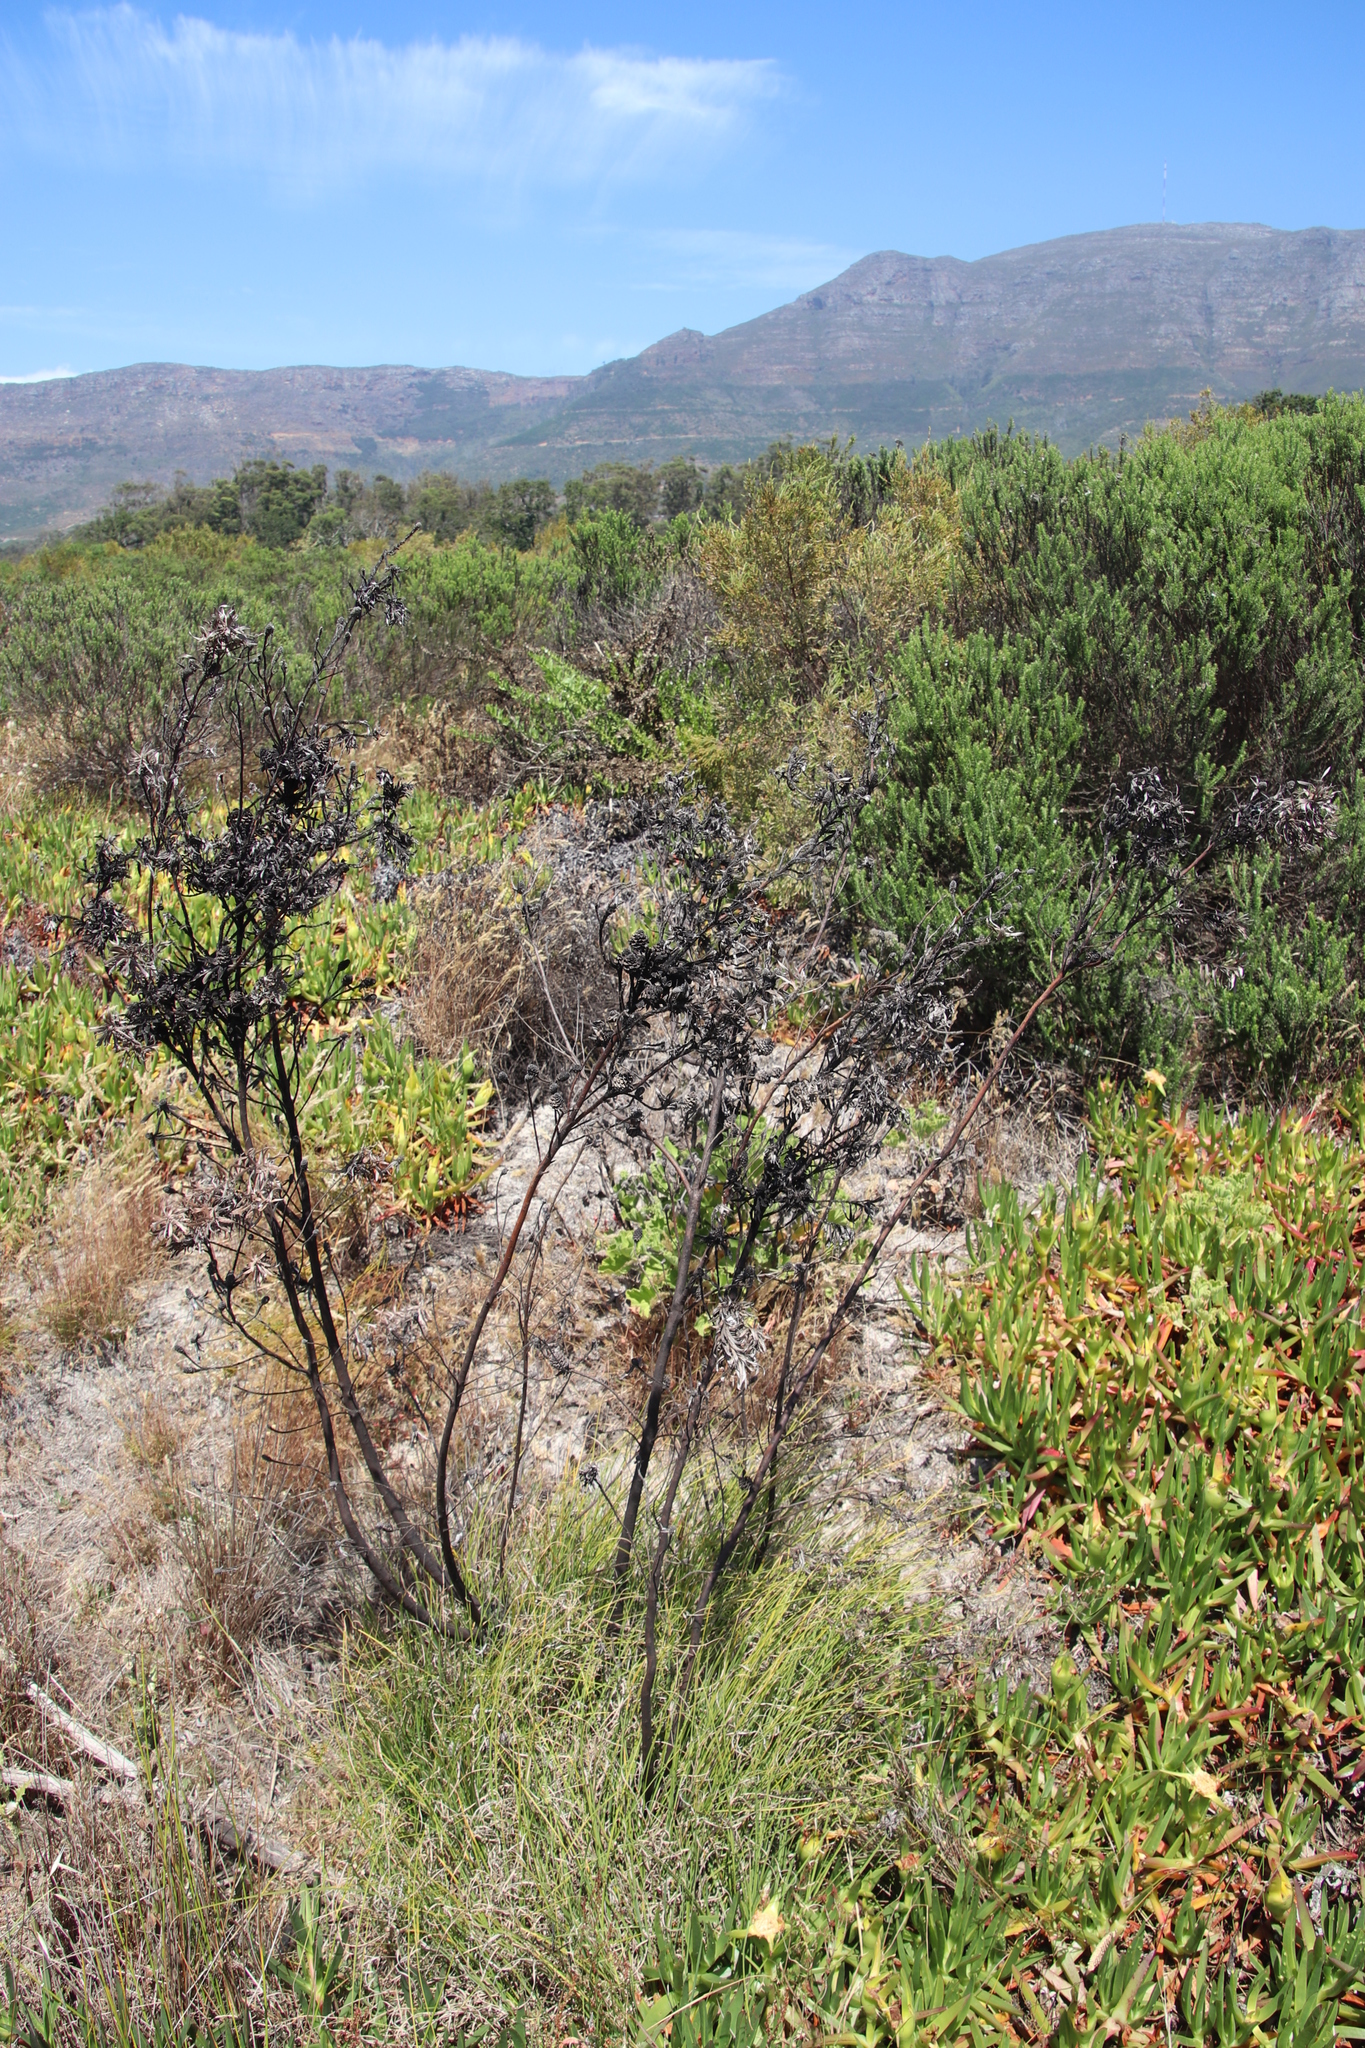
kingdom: Plantae
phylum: Tracheophyta
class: Magnoliopsida
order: Proteales
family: Proteaceae
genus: Leucadendron
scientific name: Leucadendron floridum
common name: Flats conebush
